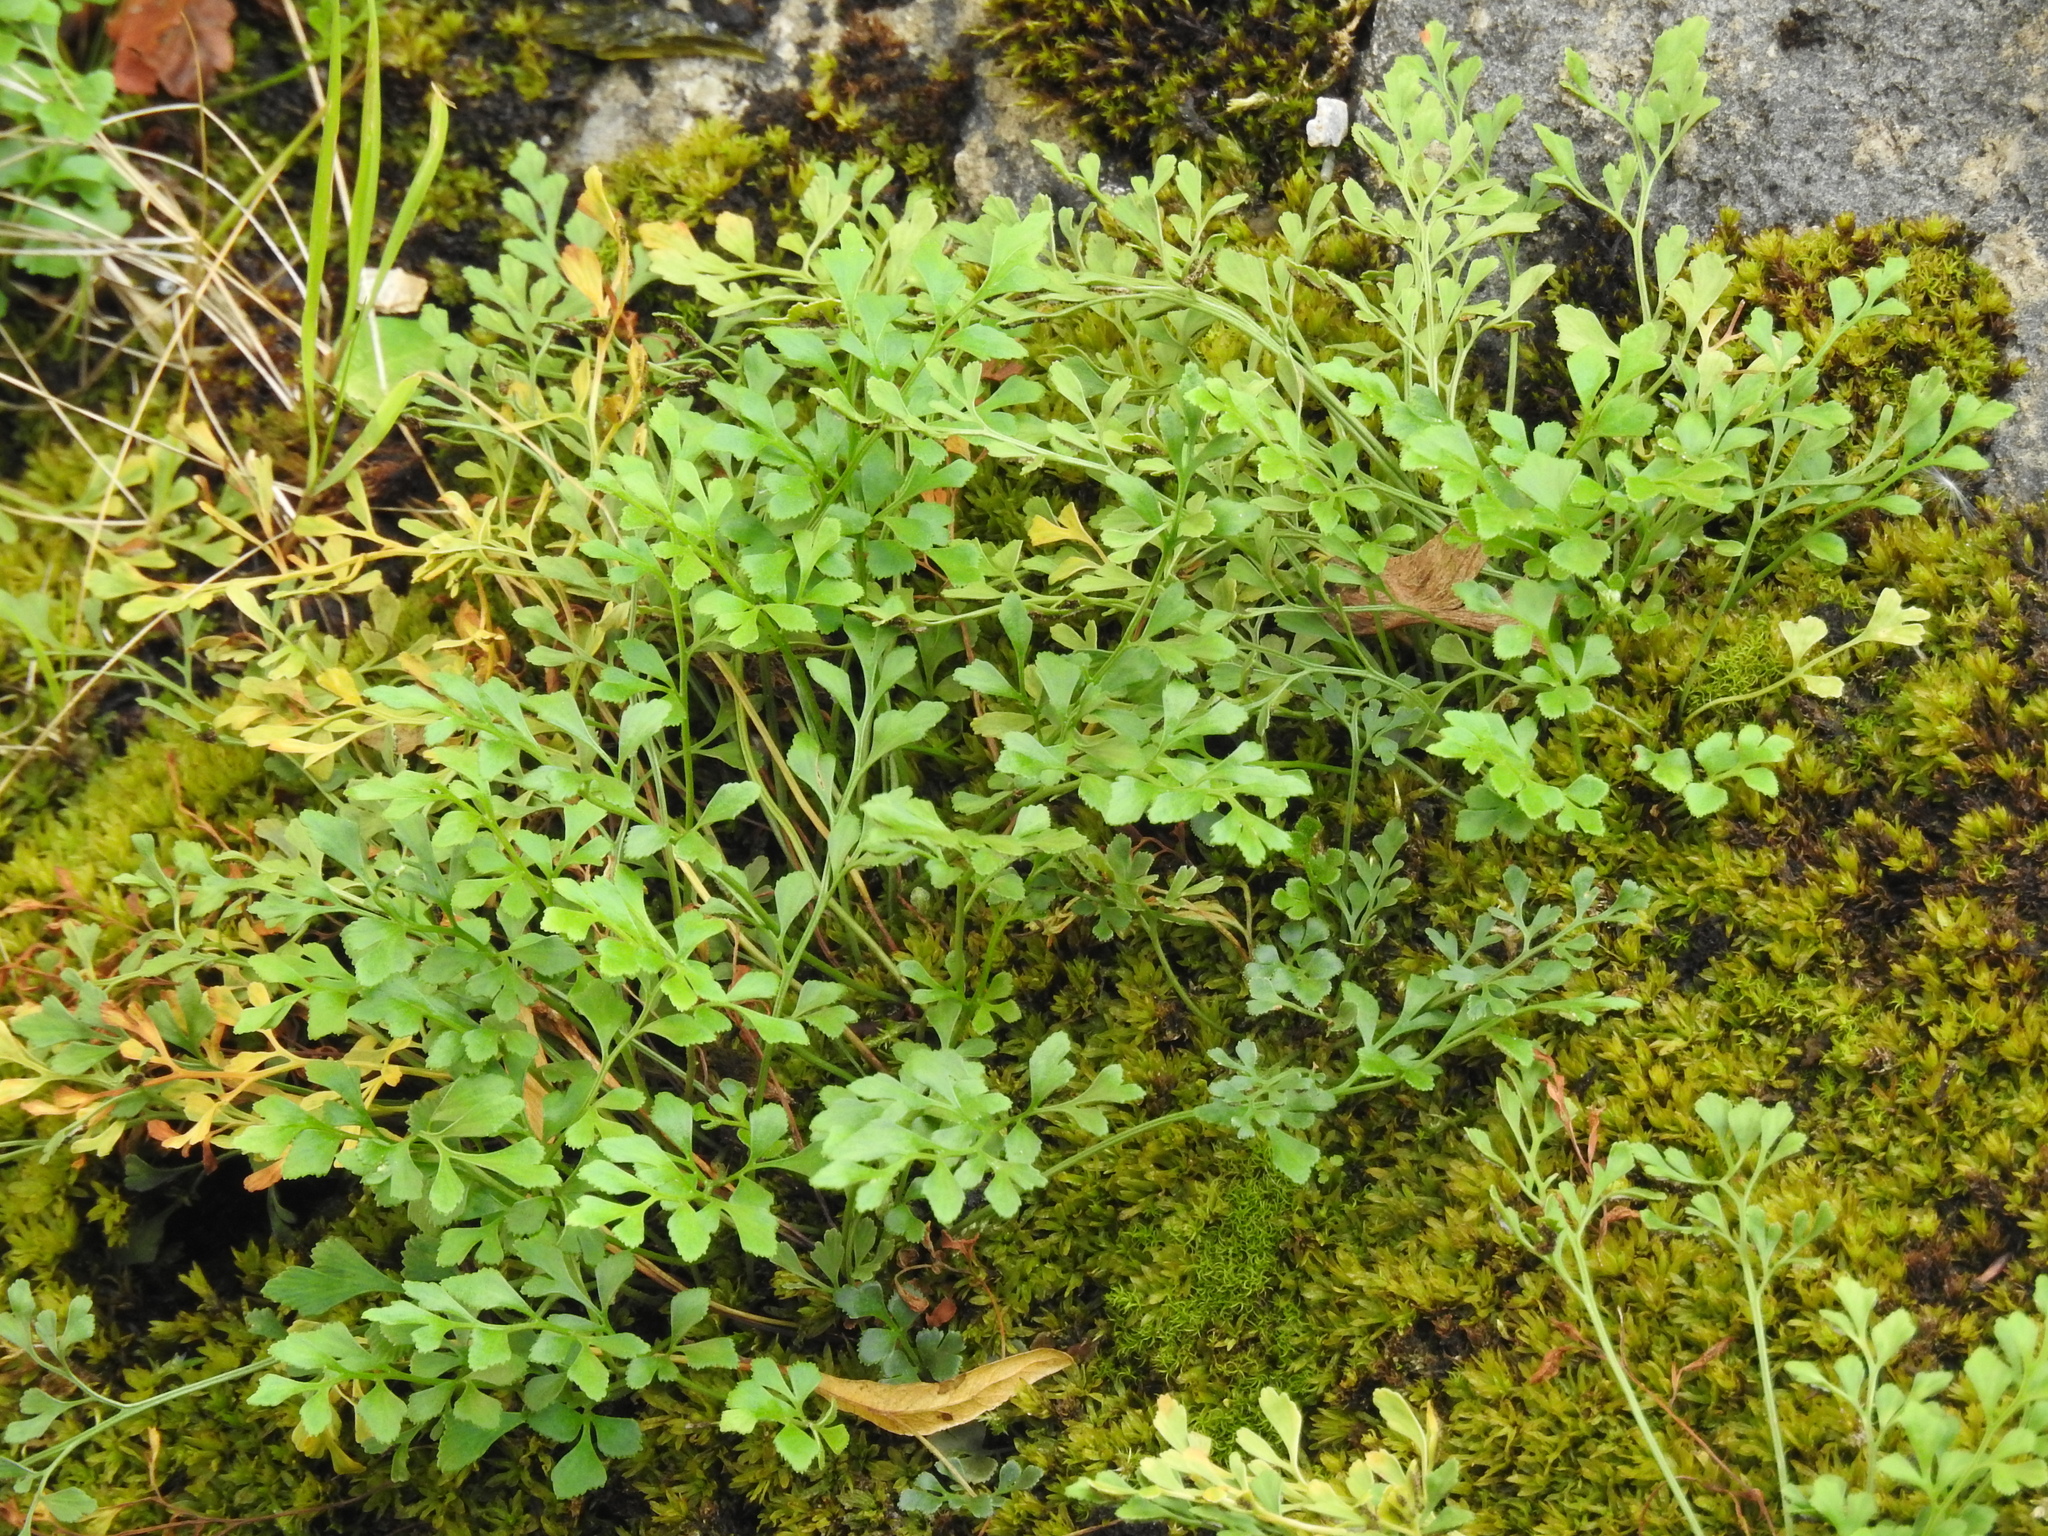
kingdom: Plantae
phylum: Tracheophyta
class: Polypodiopsida
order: Polypodiales
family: Aspleniaceae
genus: Asplenium
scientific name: Asplenium ruta-muraria
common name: Wall-rue
